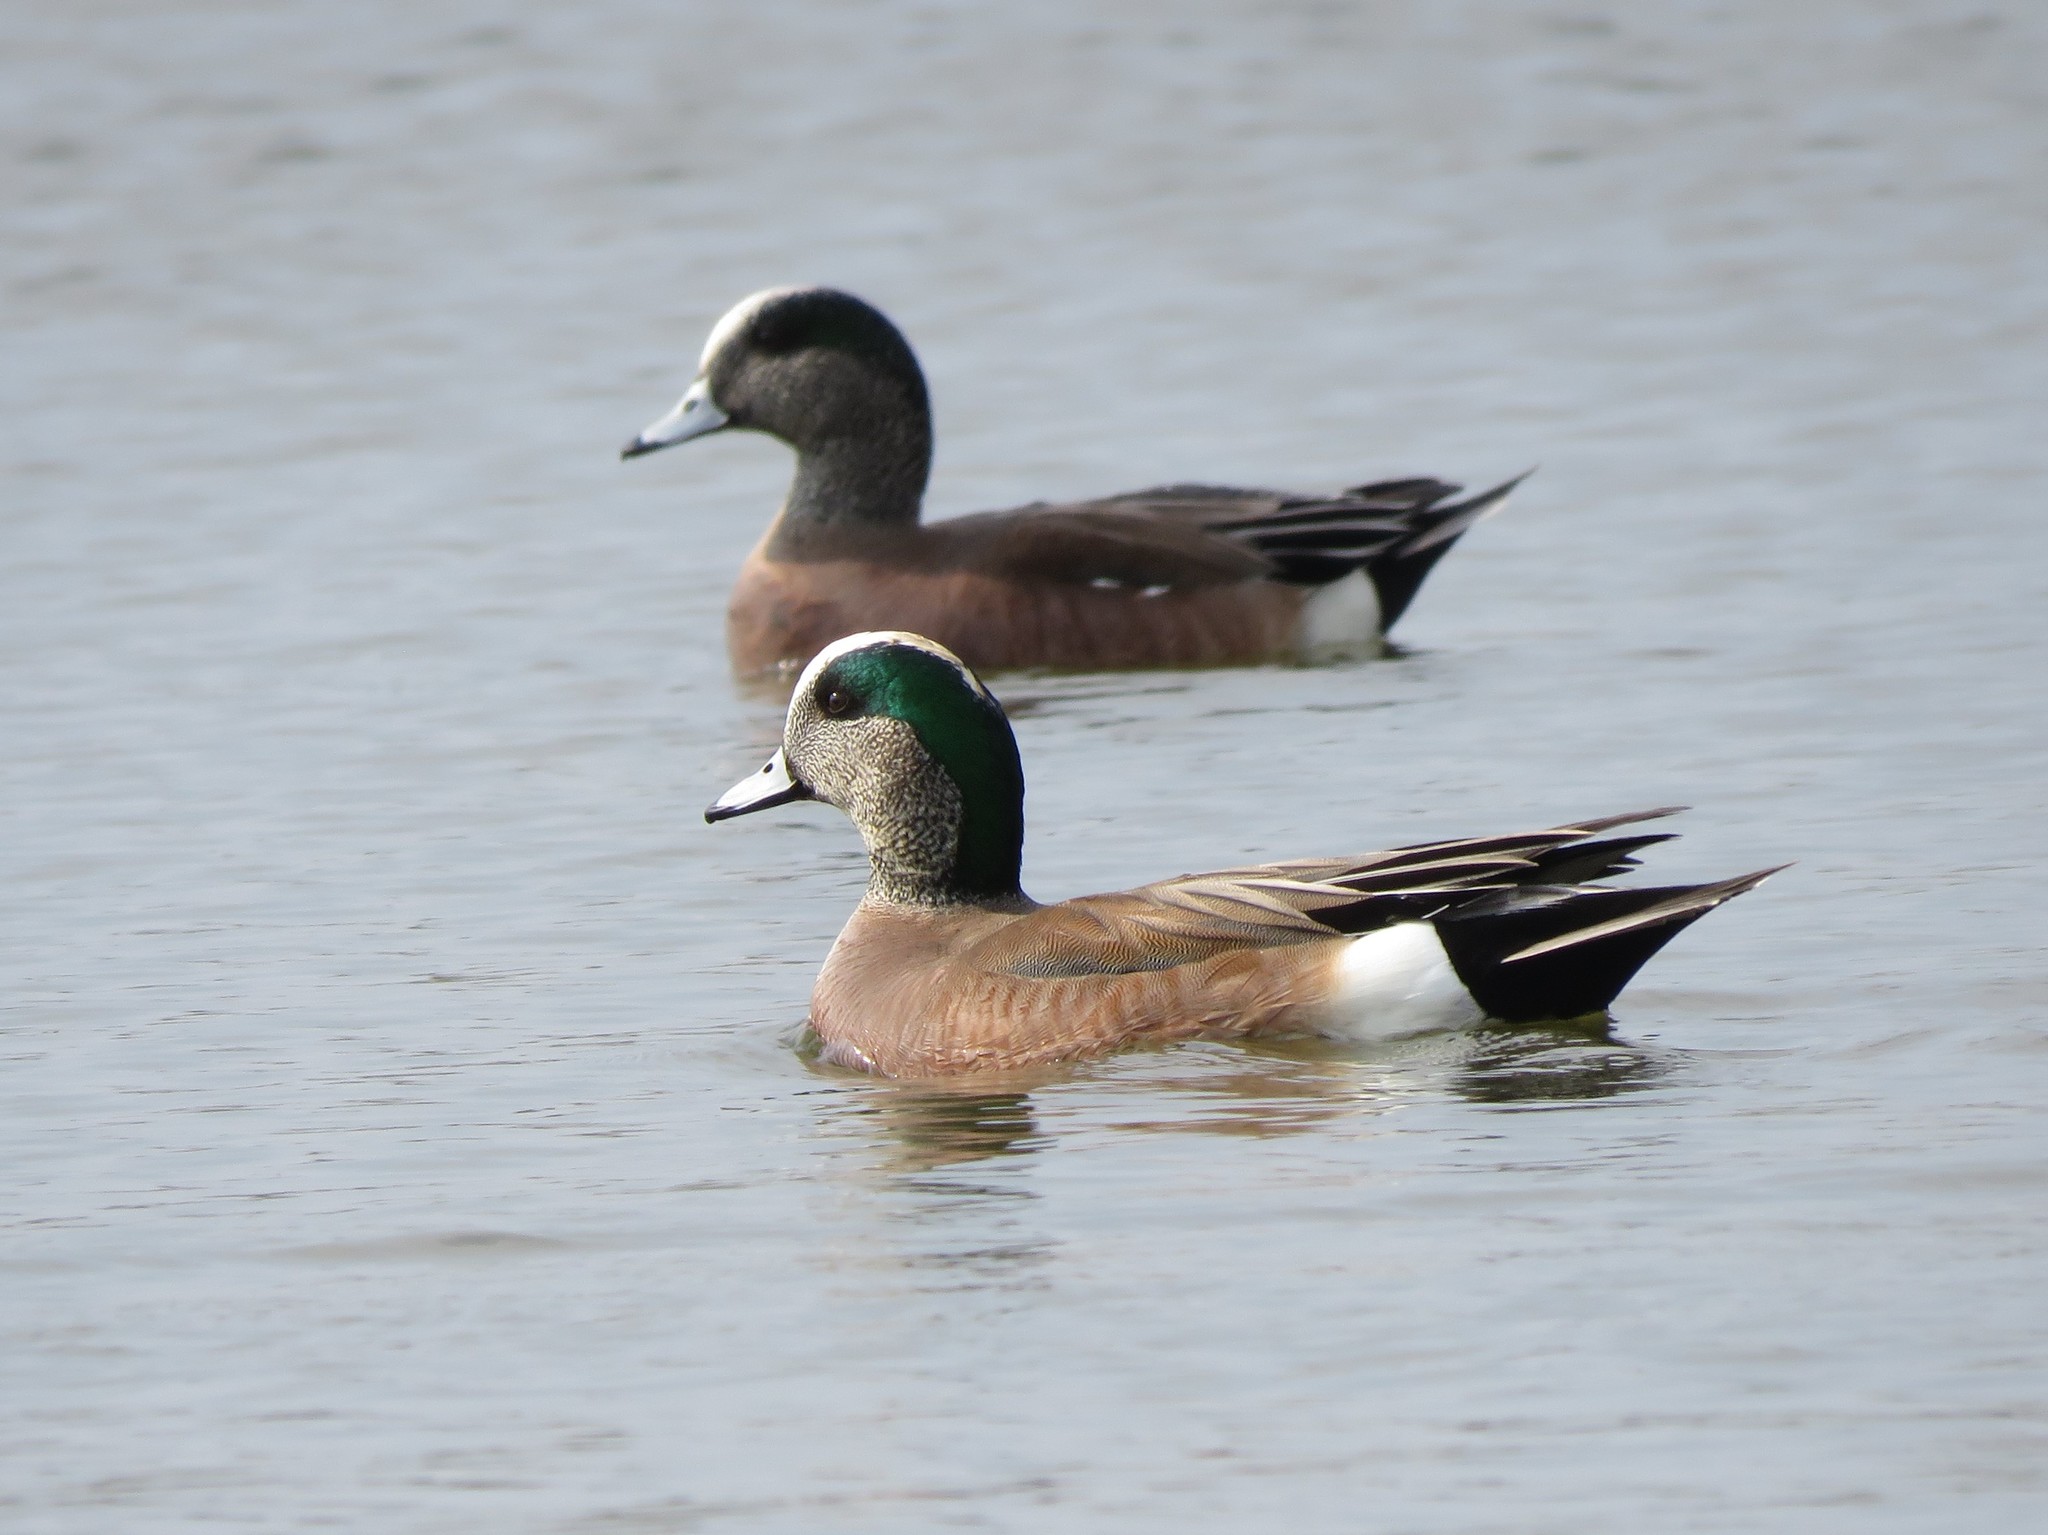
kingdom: Animalia
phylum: Chordata
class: Aves
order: Anseriformes
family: Anatidae
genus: Mareca
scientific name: Mareca americana
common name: American wigeon
